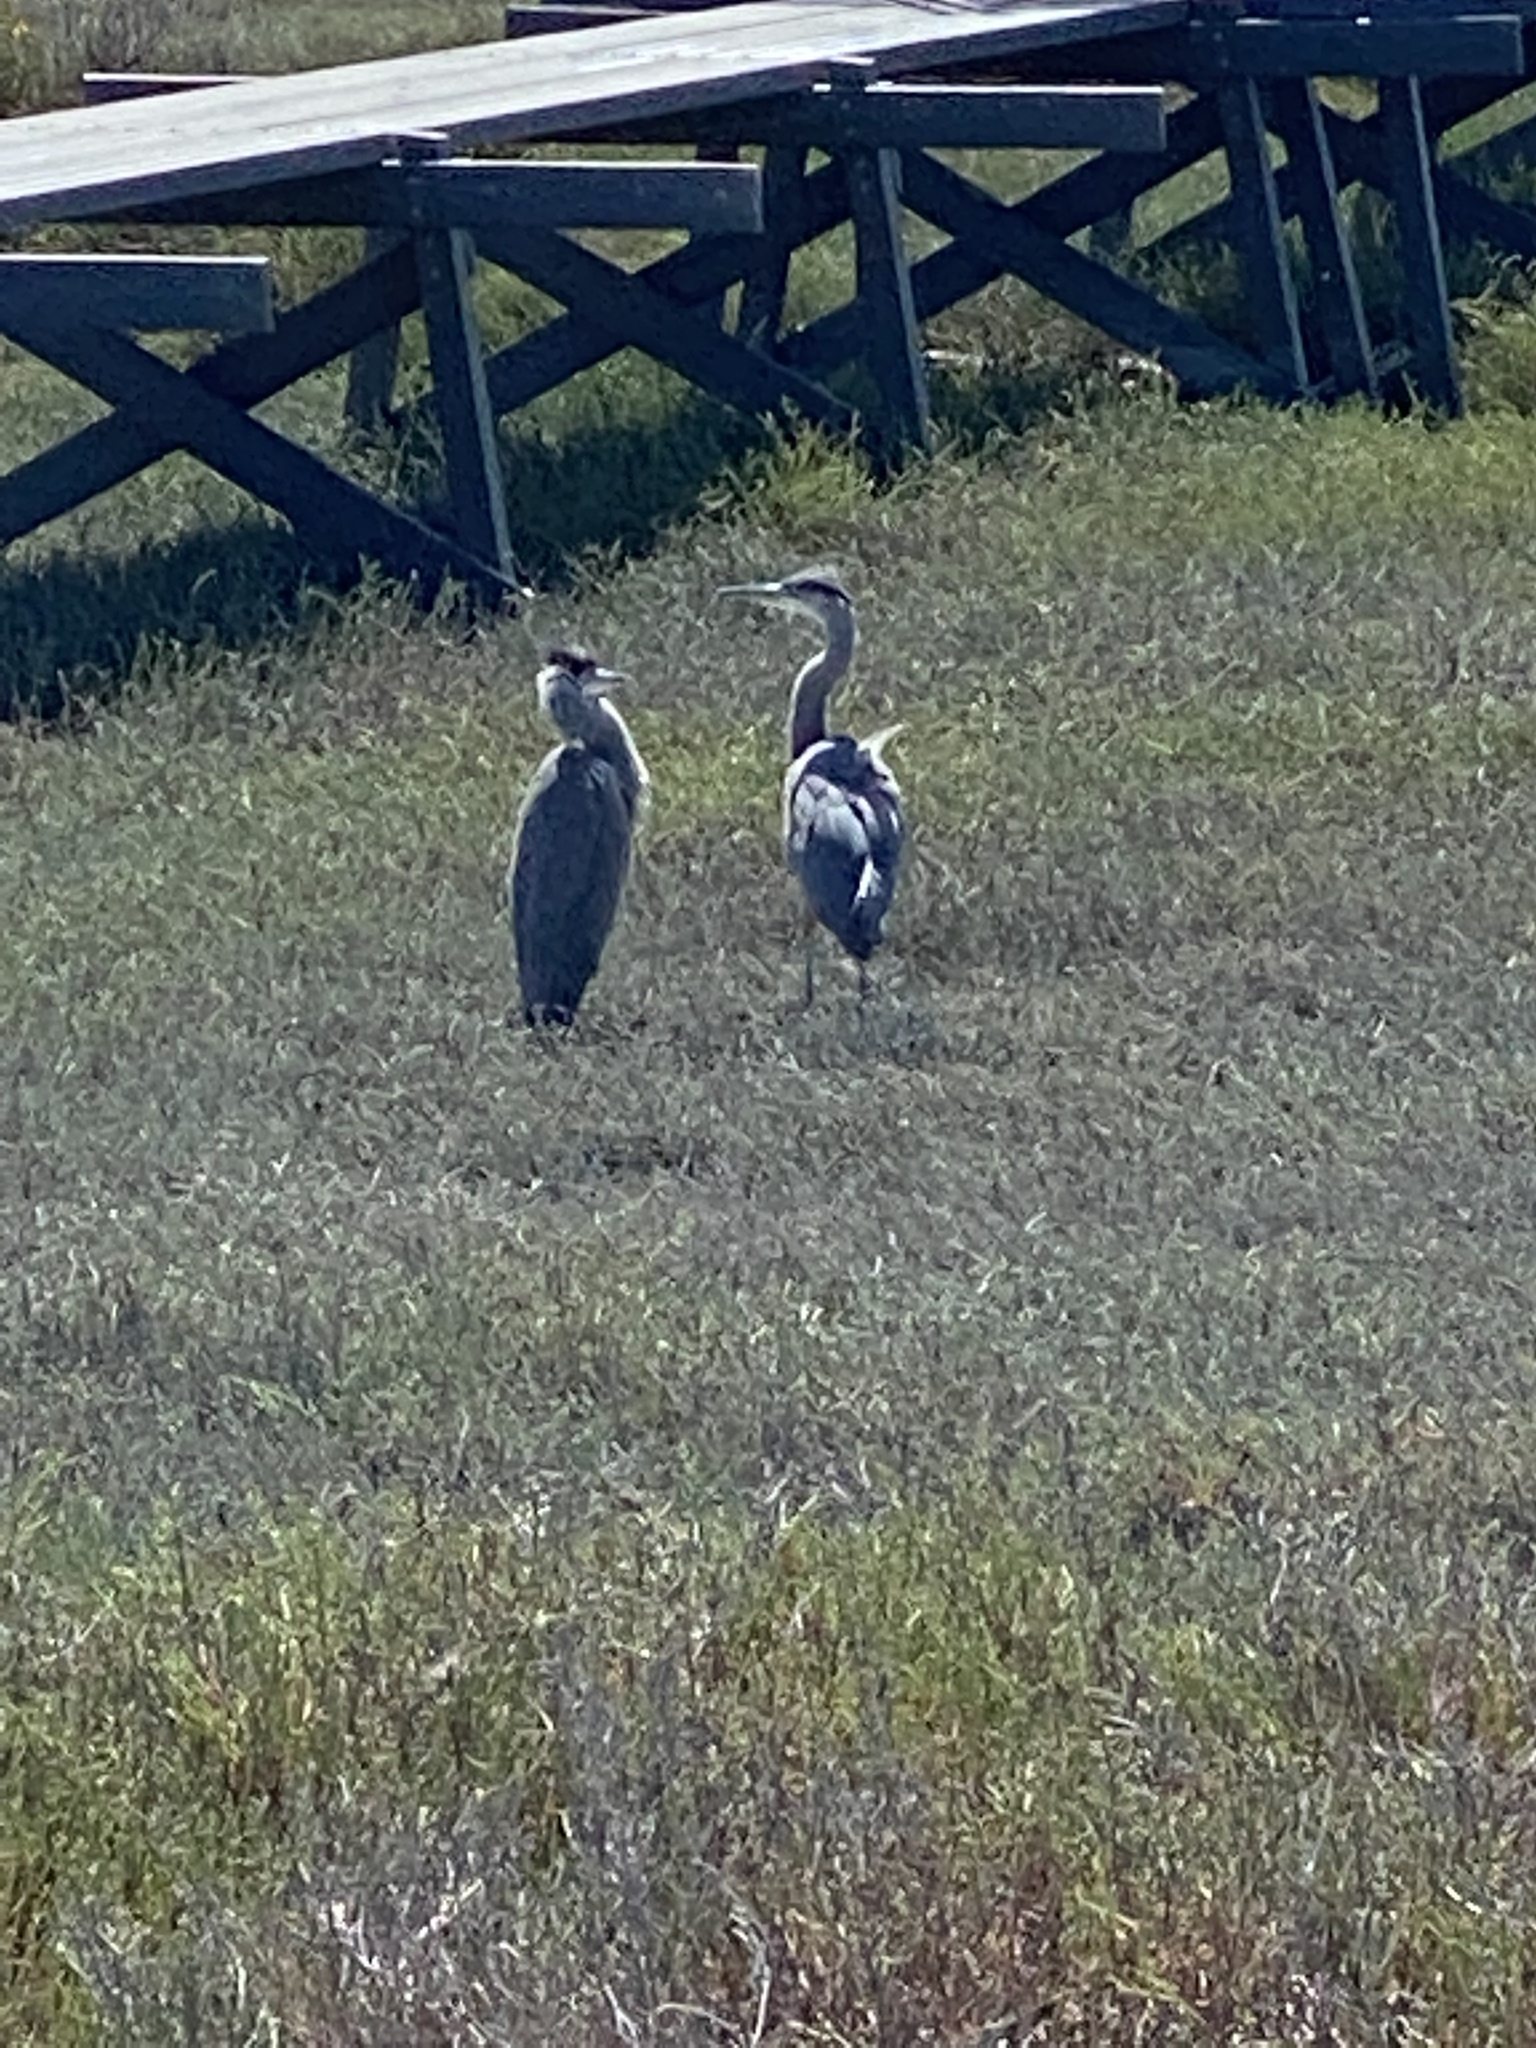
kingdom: Animalia
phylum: Chordata
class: Aves
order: Pelecaniformes
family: Ardeidae
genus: Ardea
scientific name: Ardea herodias
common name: Great blue heron
